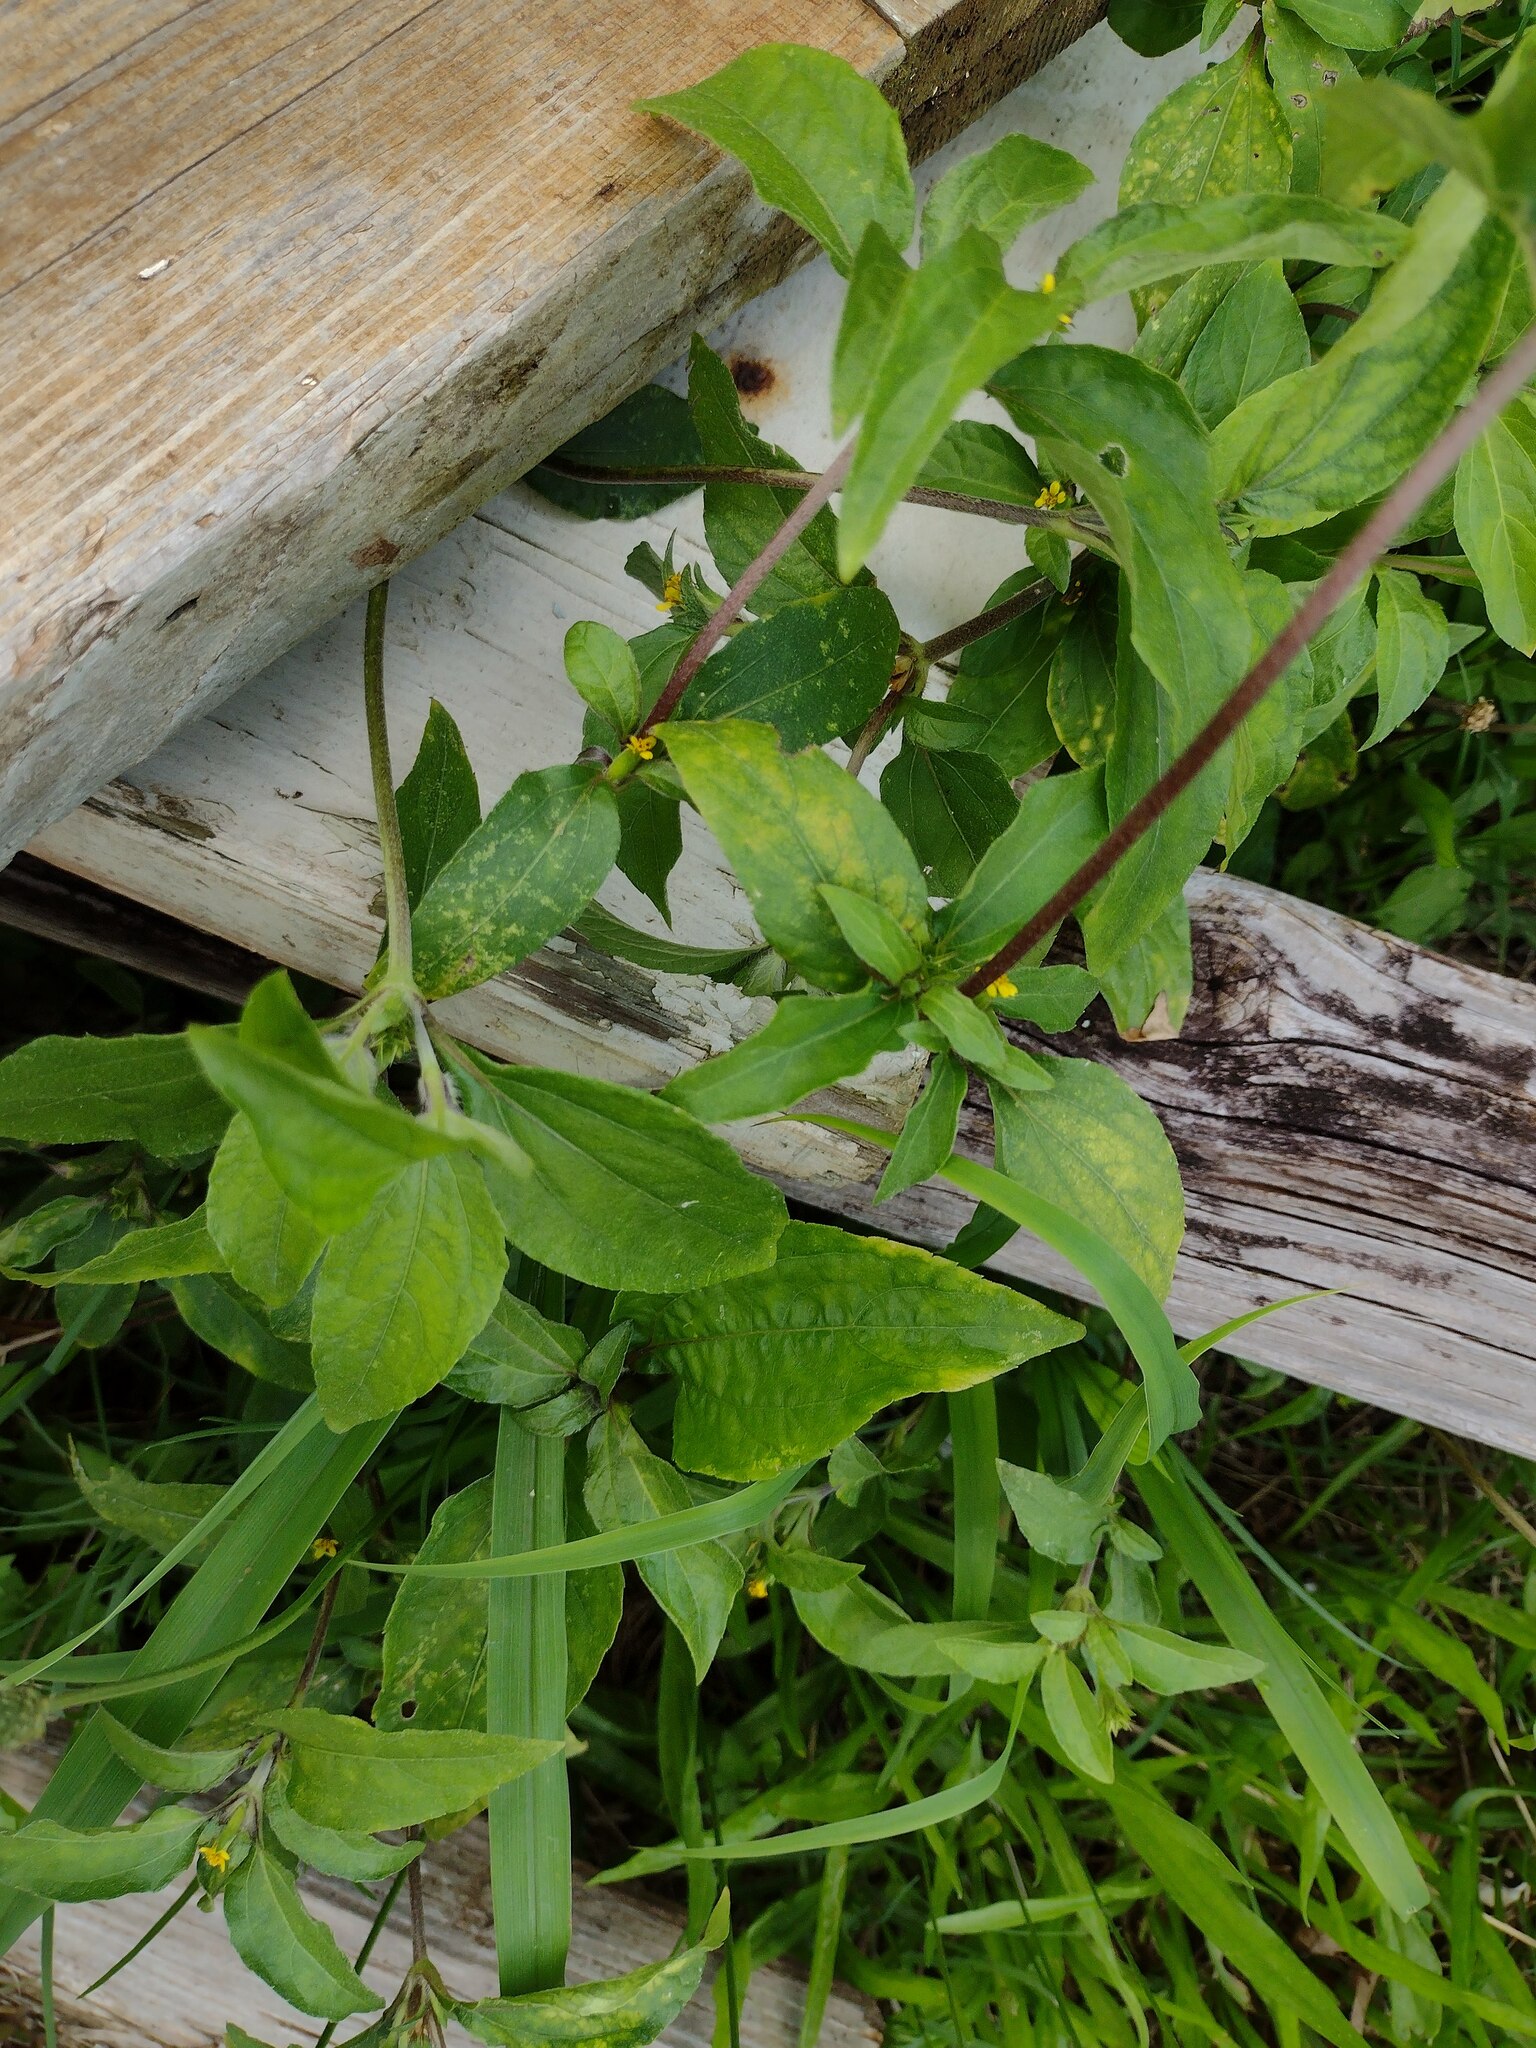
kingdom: Plantae
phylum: Tracheophyta
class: Magnoliopsida
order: Asterales
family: Asteraceae
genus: Synedrella
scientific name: Synedrella nodiflora
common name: Nodeweed
